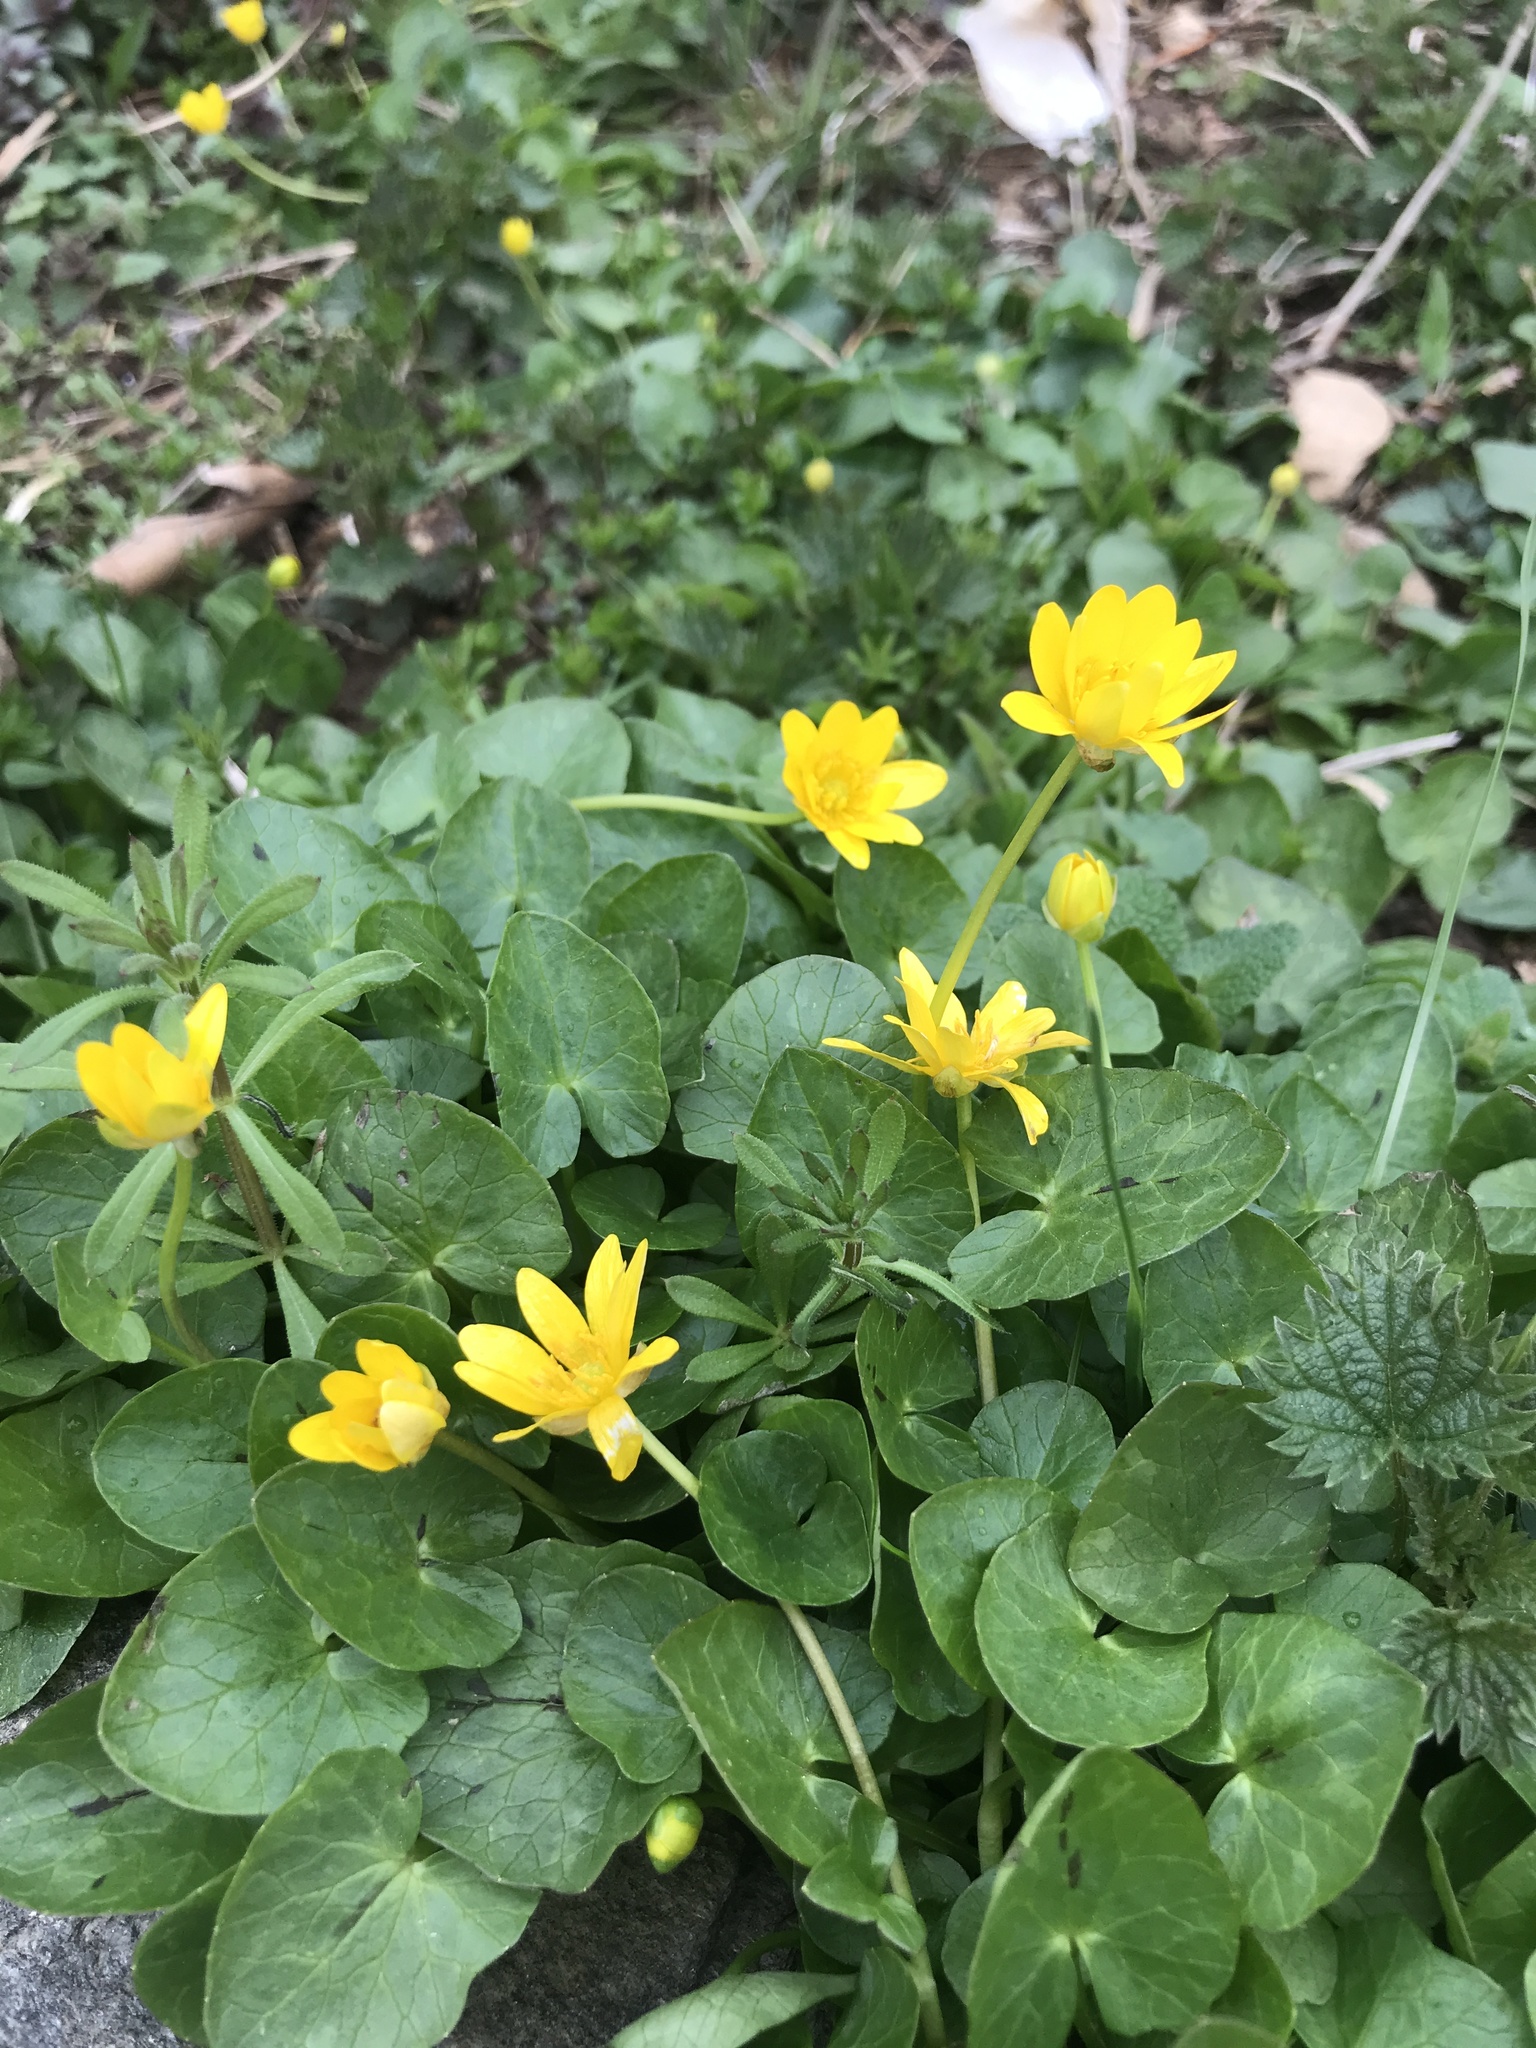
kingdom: Plantae
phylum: Tracheophyta
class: Magnoliopsida
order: Ranunculales
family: Ranunculaceae
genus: Ficaria
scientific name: Ficaria verna
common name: Lesser celandine
